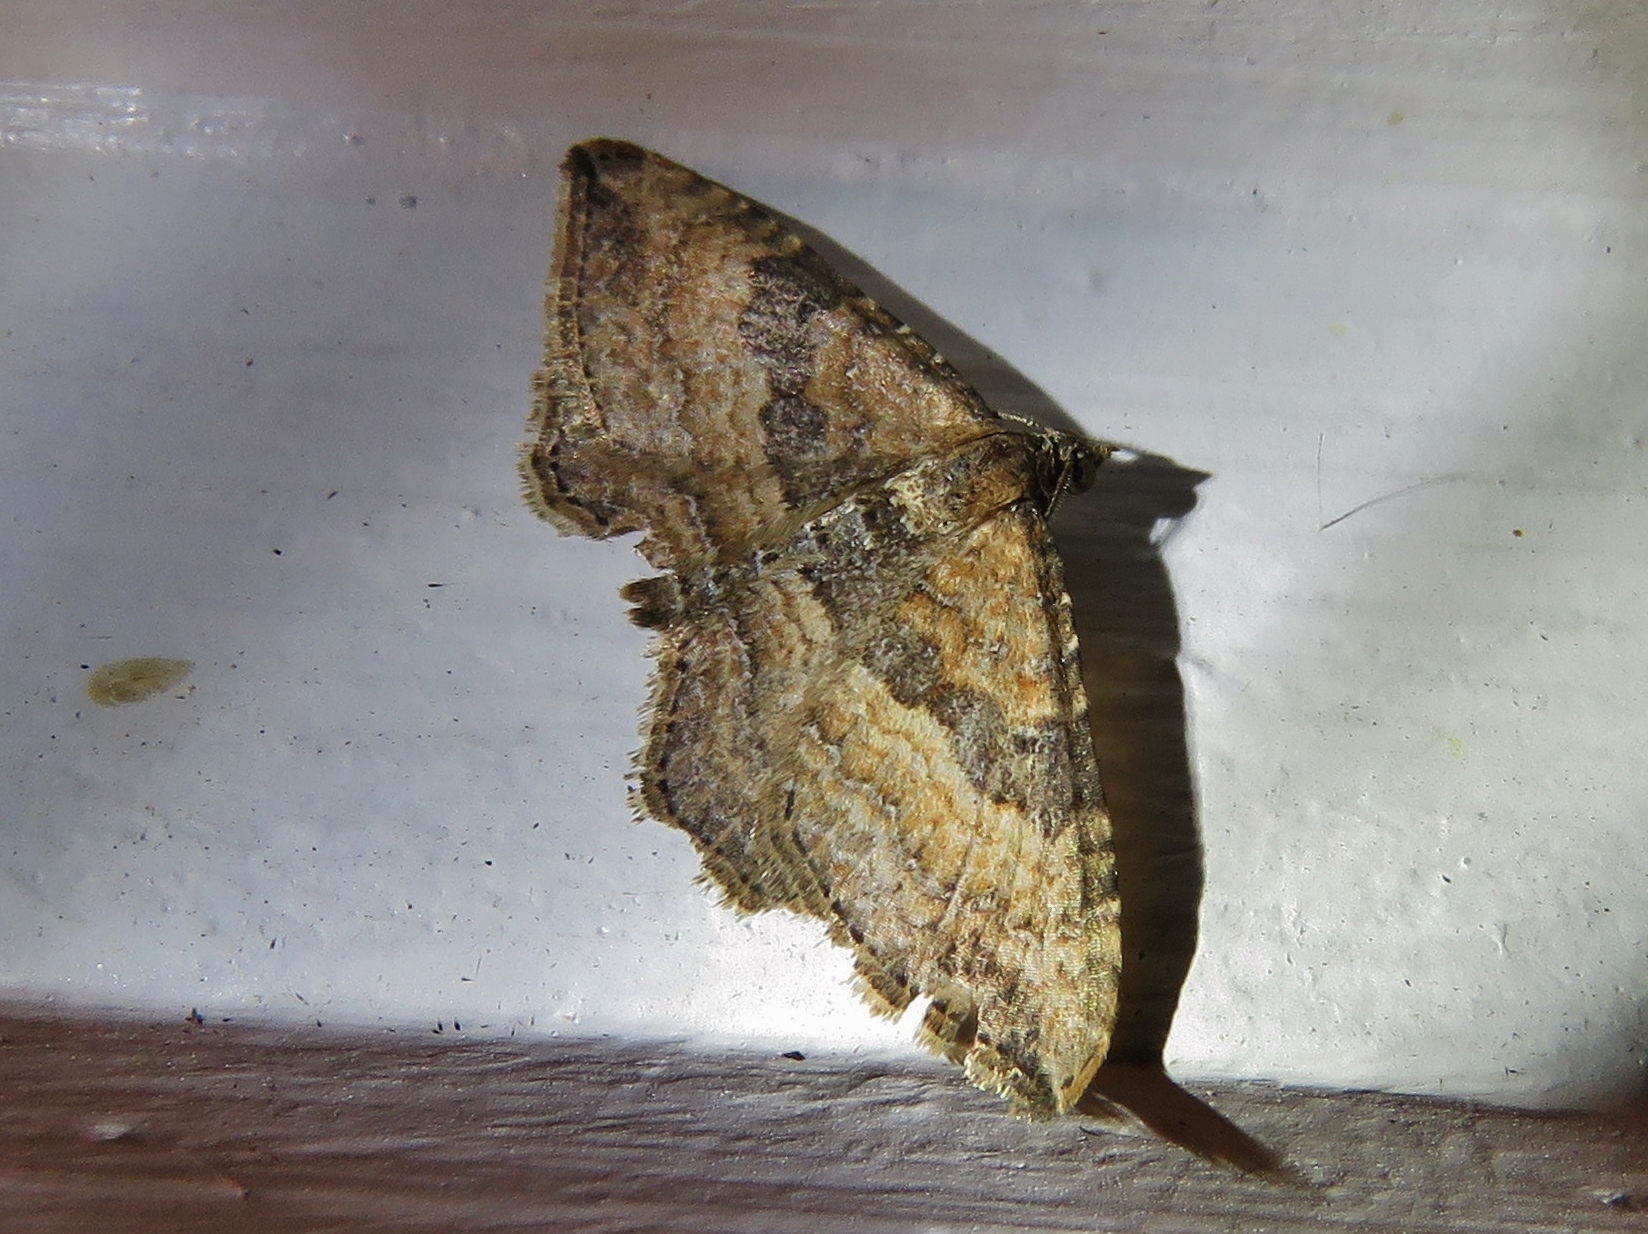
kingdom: Animalia
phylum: Arthropoda
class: Insecta
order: Lepidoptera
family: Geometridae
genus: Costaconvexa
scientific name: Costaconvexa centrostrigaria
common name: Bent-line carpet
